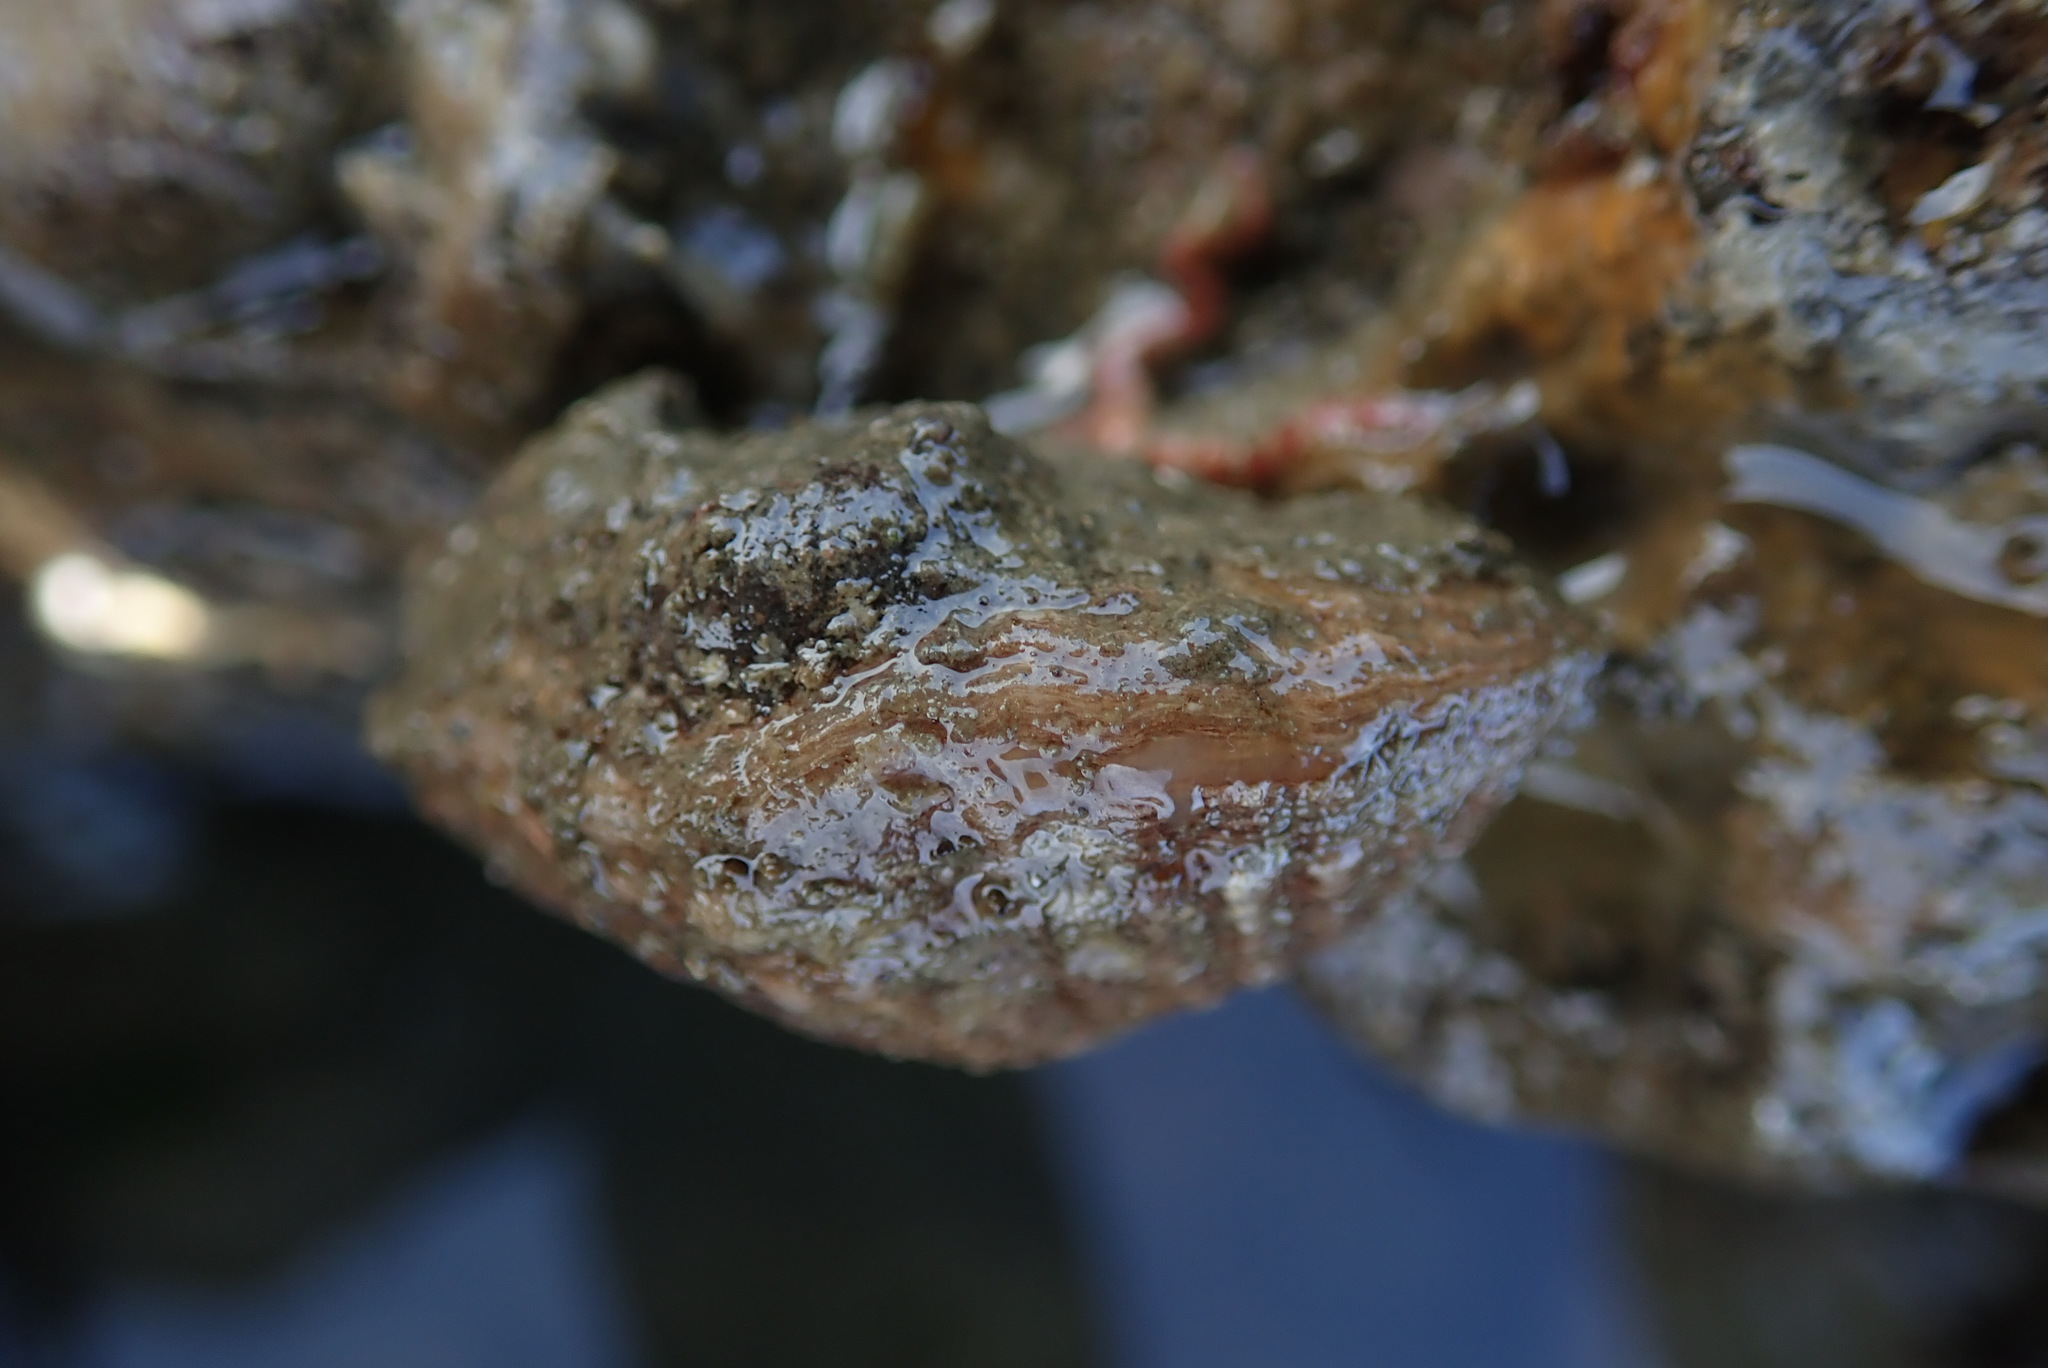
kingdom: Animalia
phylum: Brachiopoda
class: Rhynchonellata
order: Terebratulida
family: Terebrataliidae
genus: Terebratalia
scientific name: Terebratalia transversa
